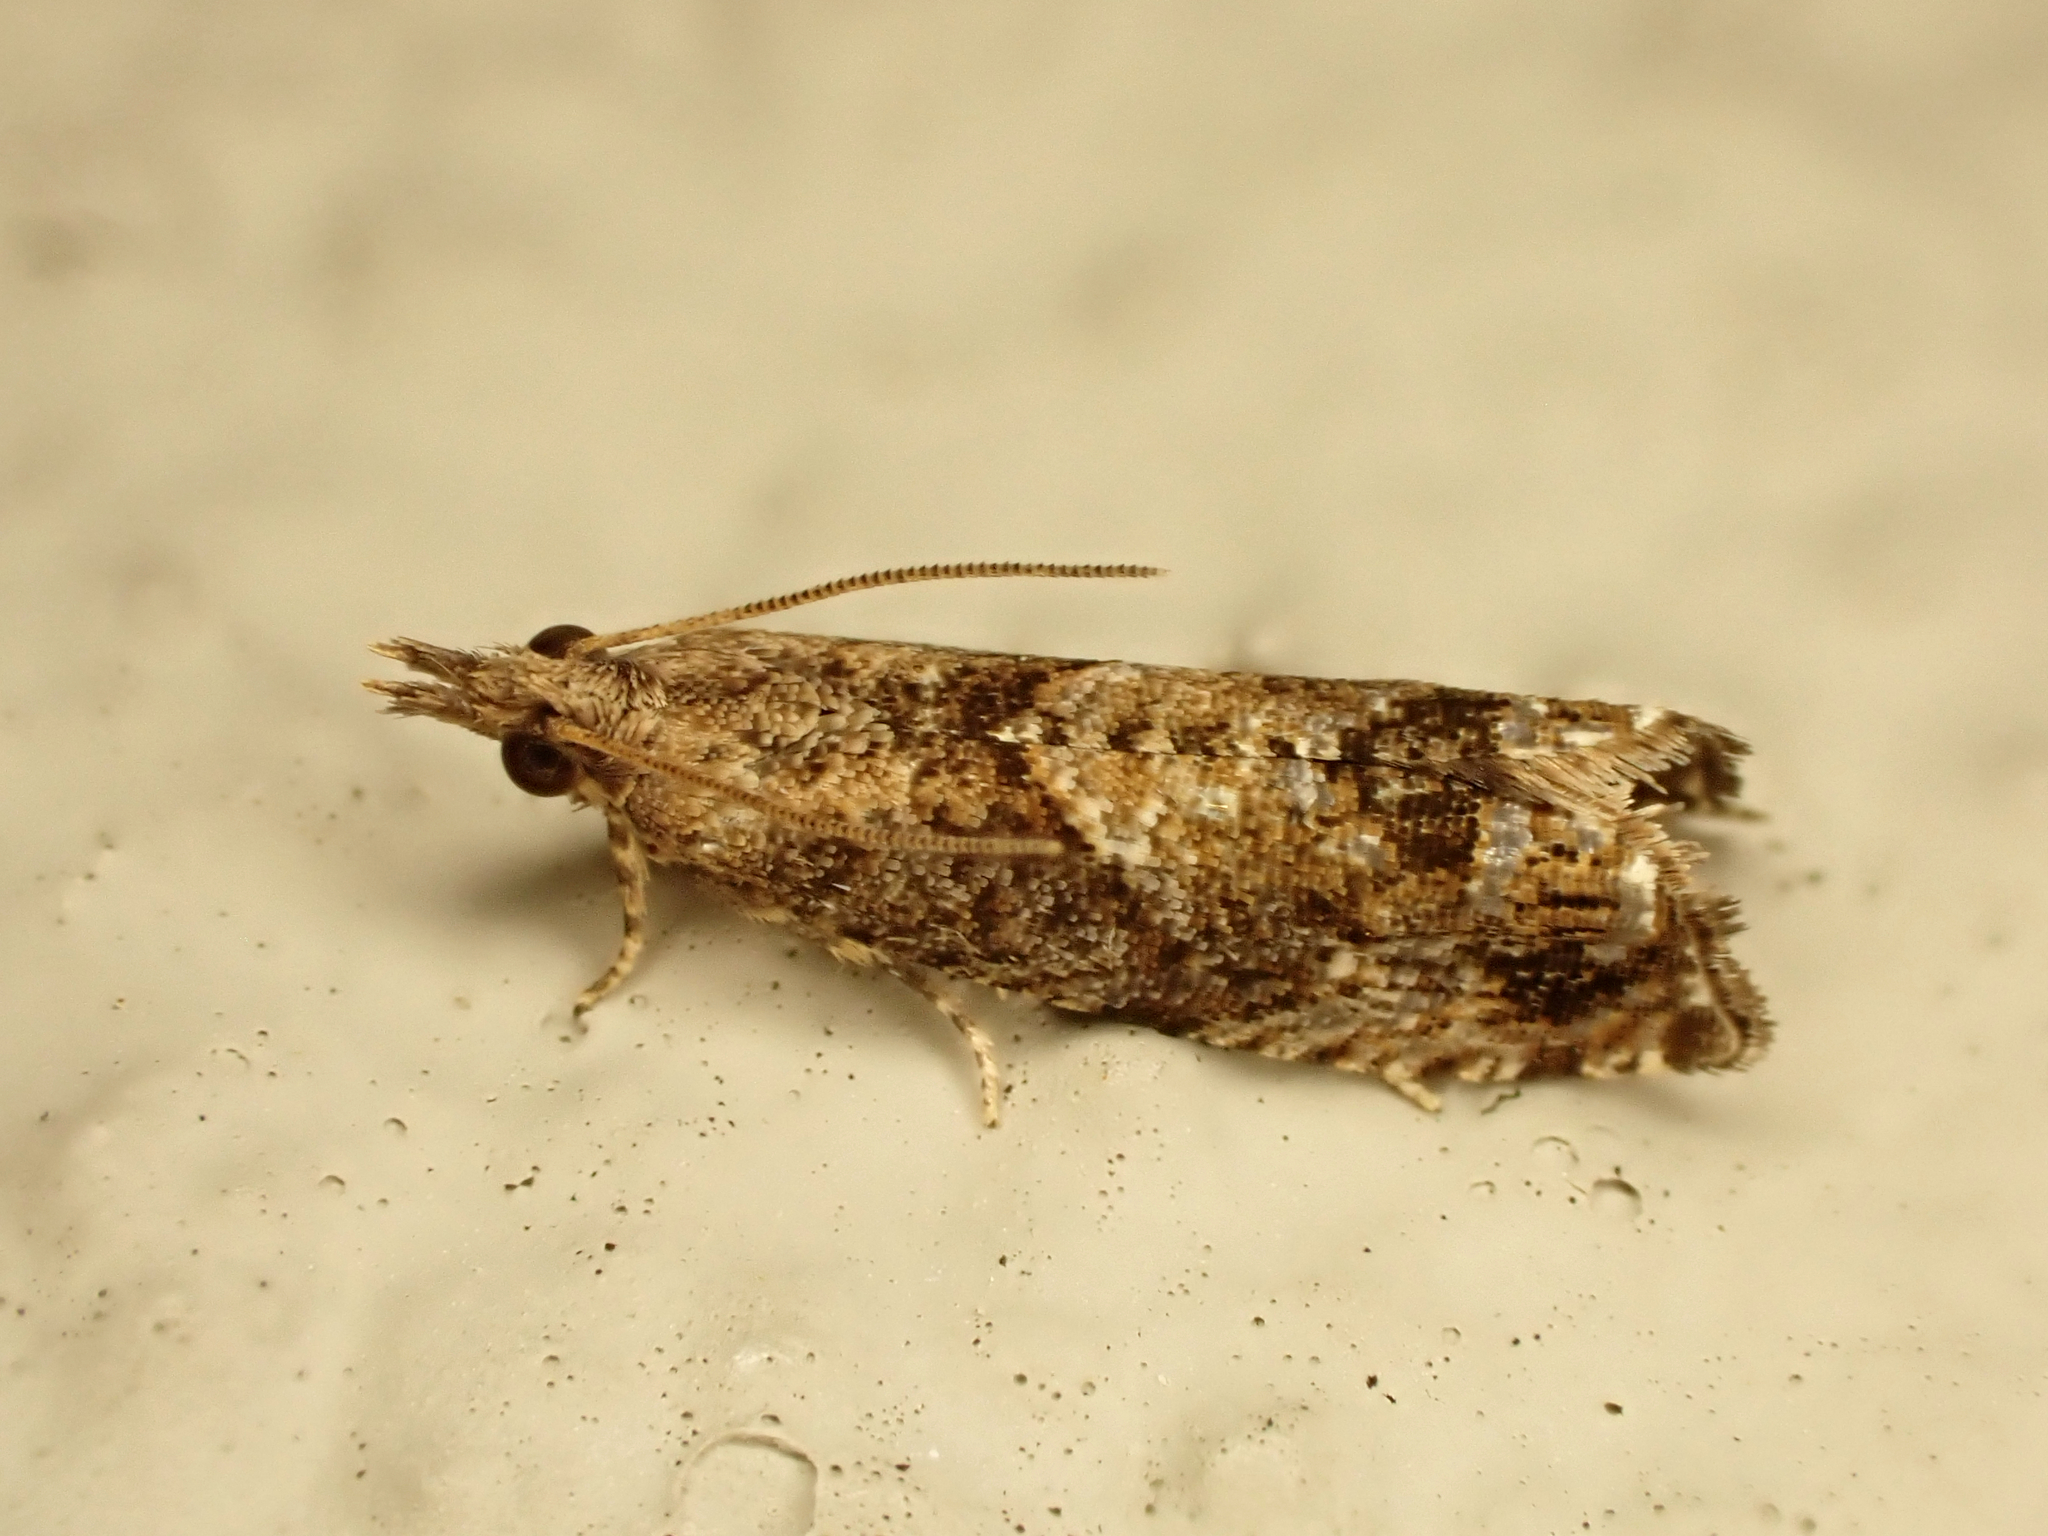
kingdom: Animalia
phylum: Arthropoda
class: Insecta
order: Lepidoptera
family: Tortricidae
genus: Strepsicrates
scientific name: Strepsicrates sideritis
